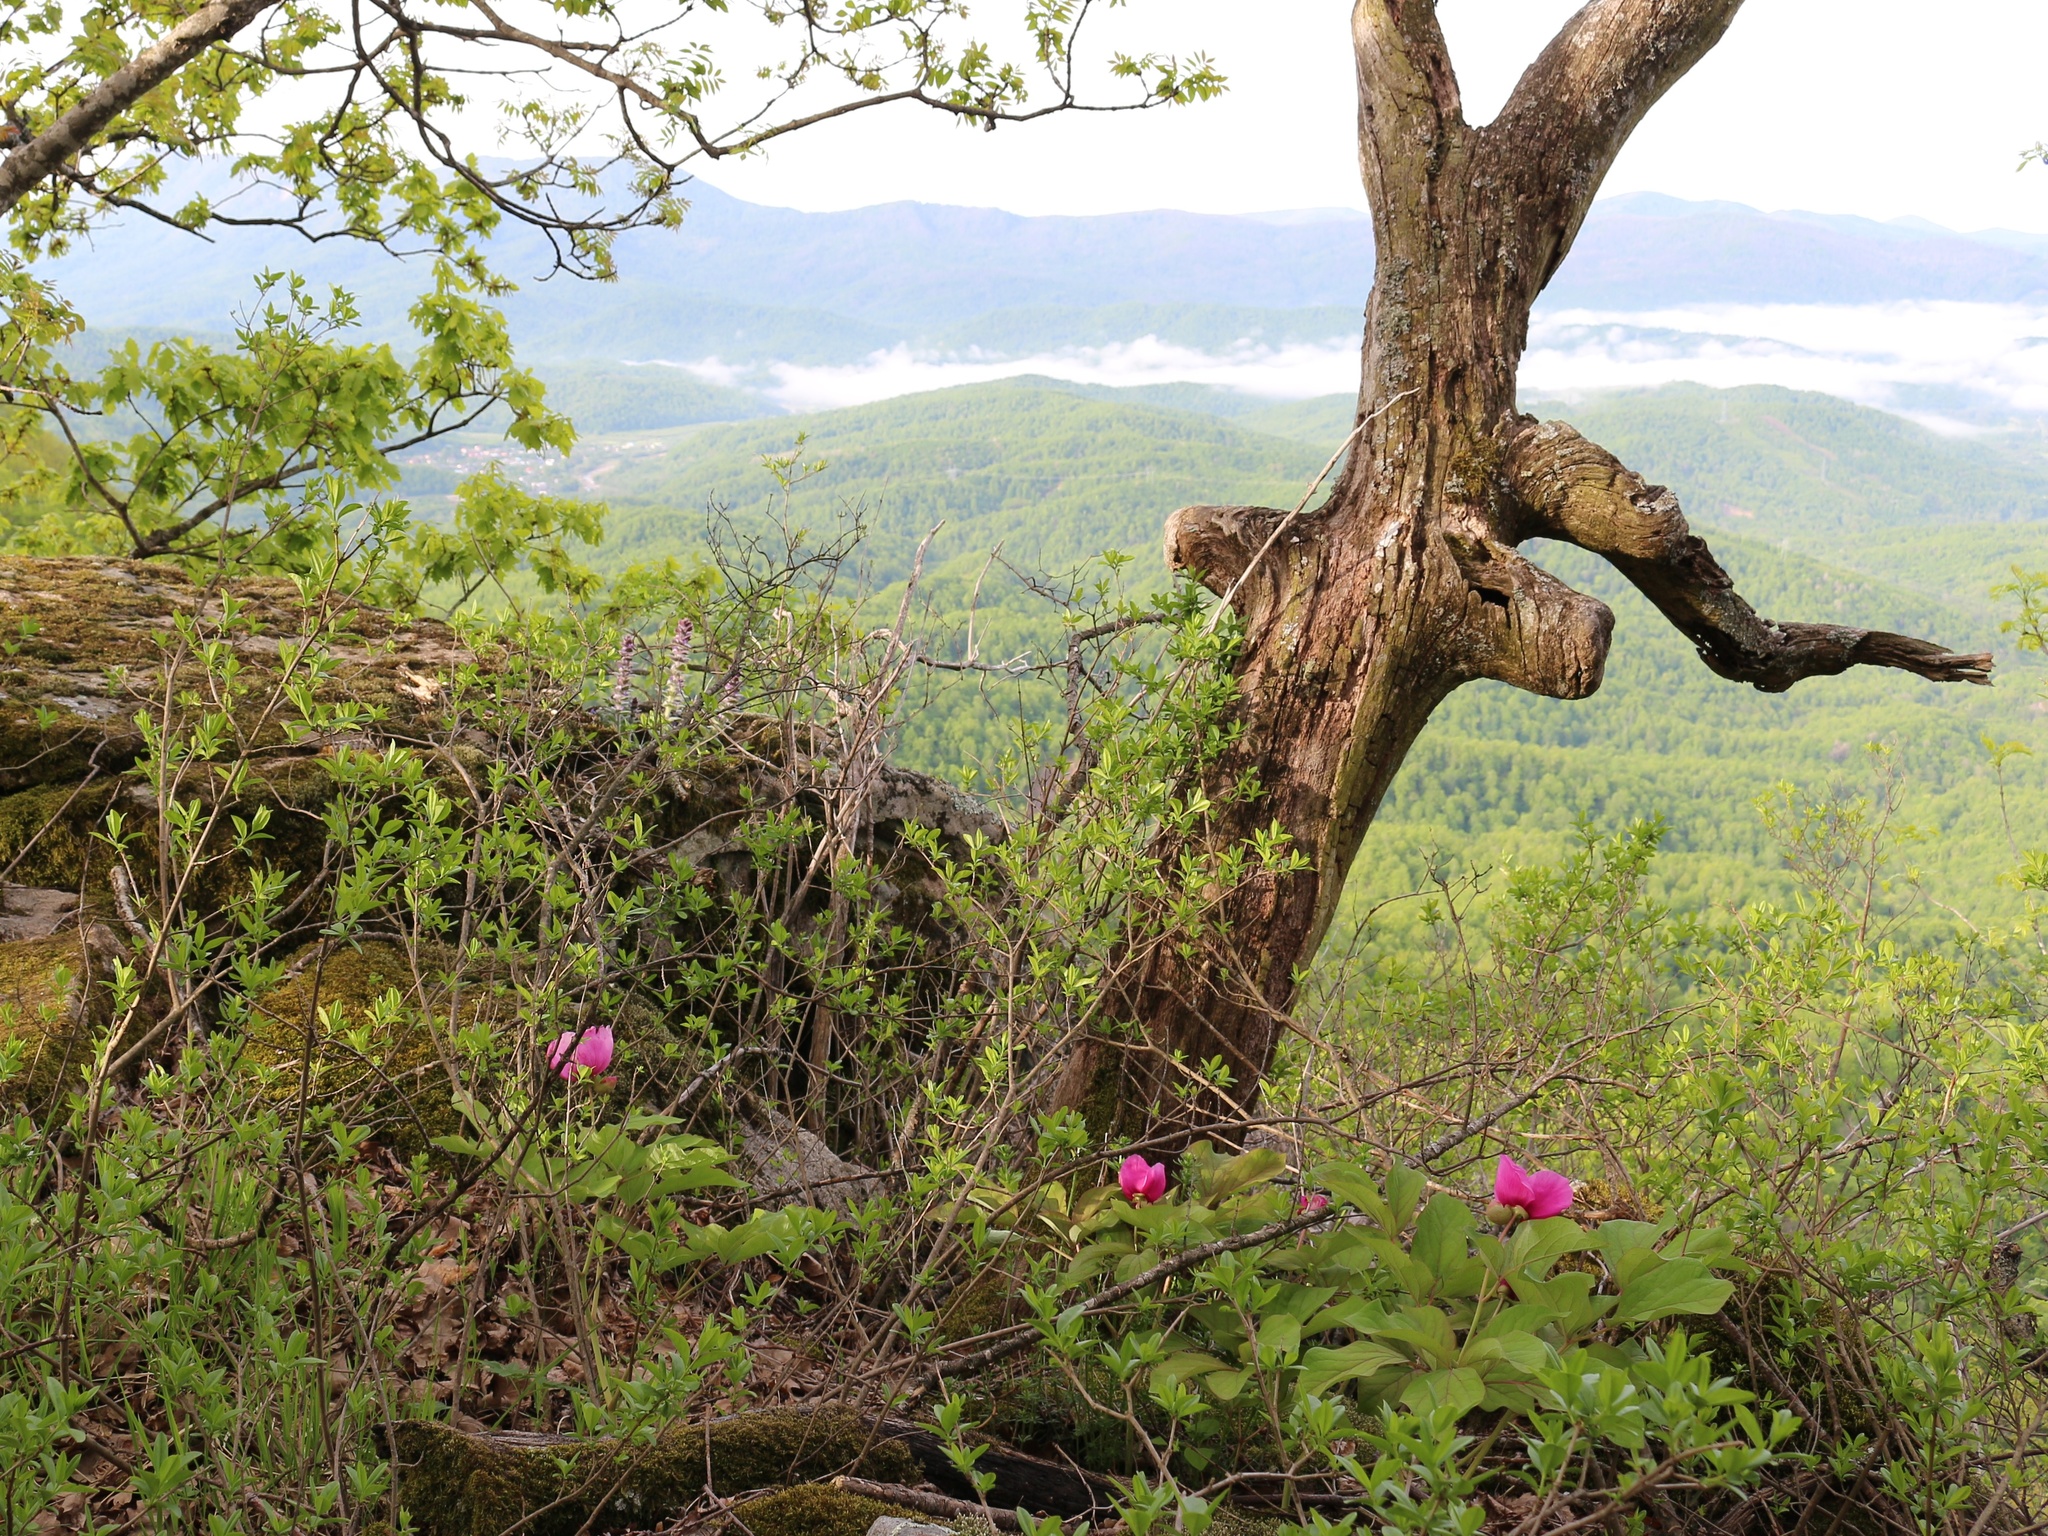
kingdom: Plantae
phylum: Tracheophyta
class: Magnoliopsida
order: Saxifragales
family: Paeoniaceae
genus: Paeonia
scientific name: Paeonia caucasica
